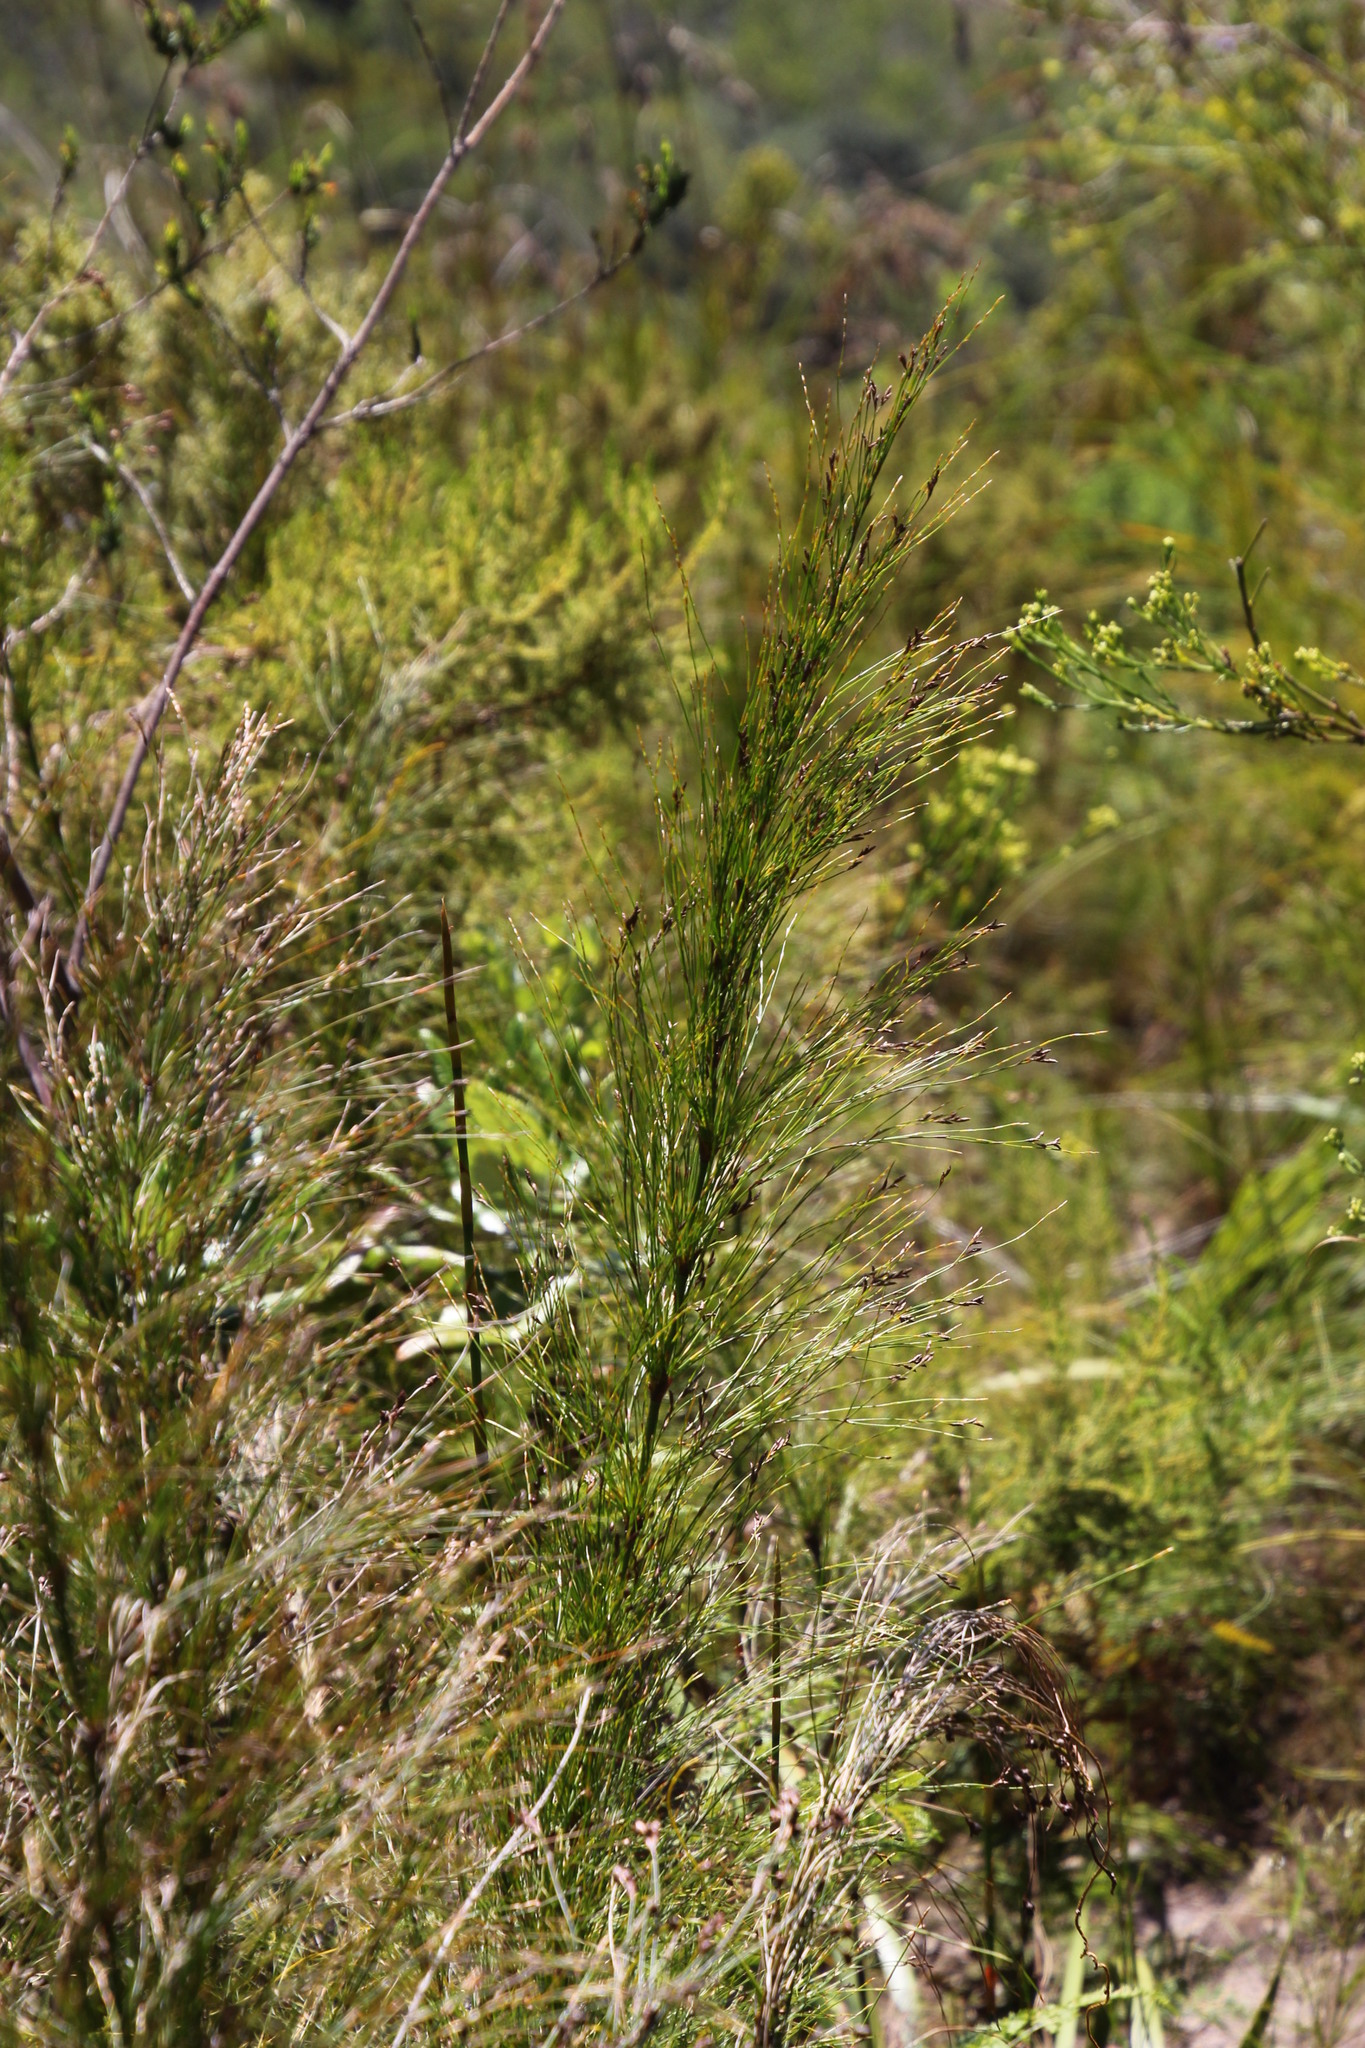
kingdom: Plantae
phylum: Tracheophyta
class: Liliopsida
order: Poales
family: Restionaceae
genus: Restio
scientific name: Restio subverticillatus
